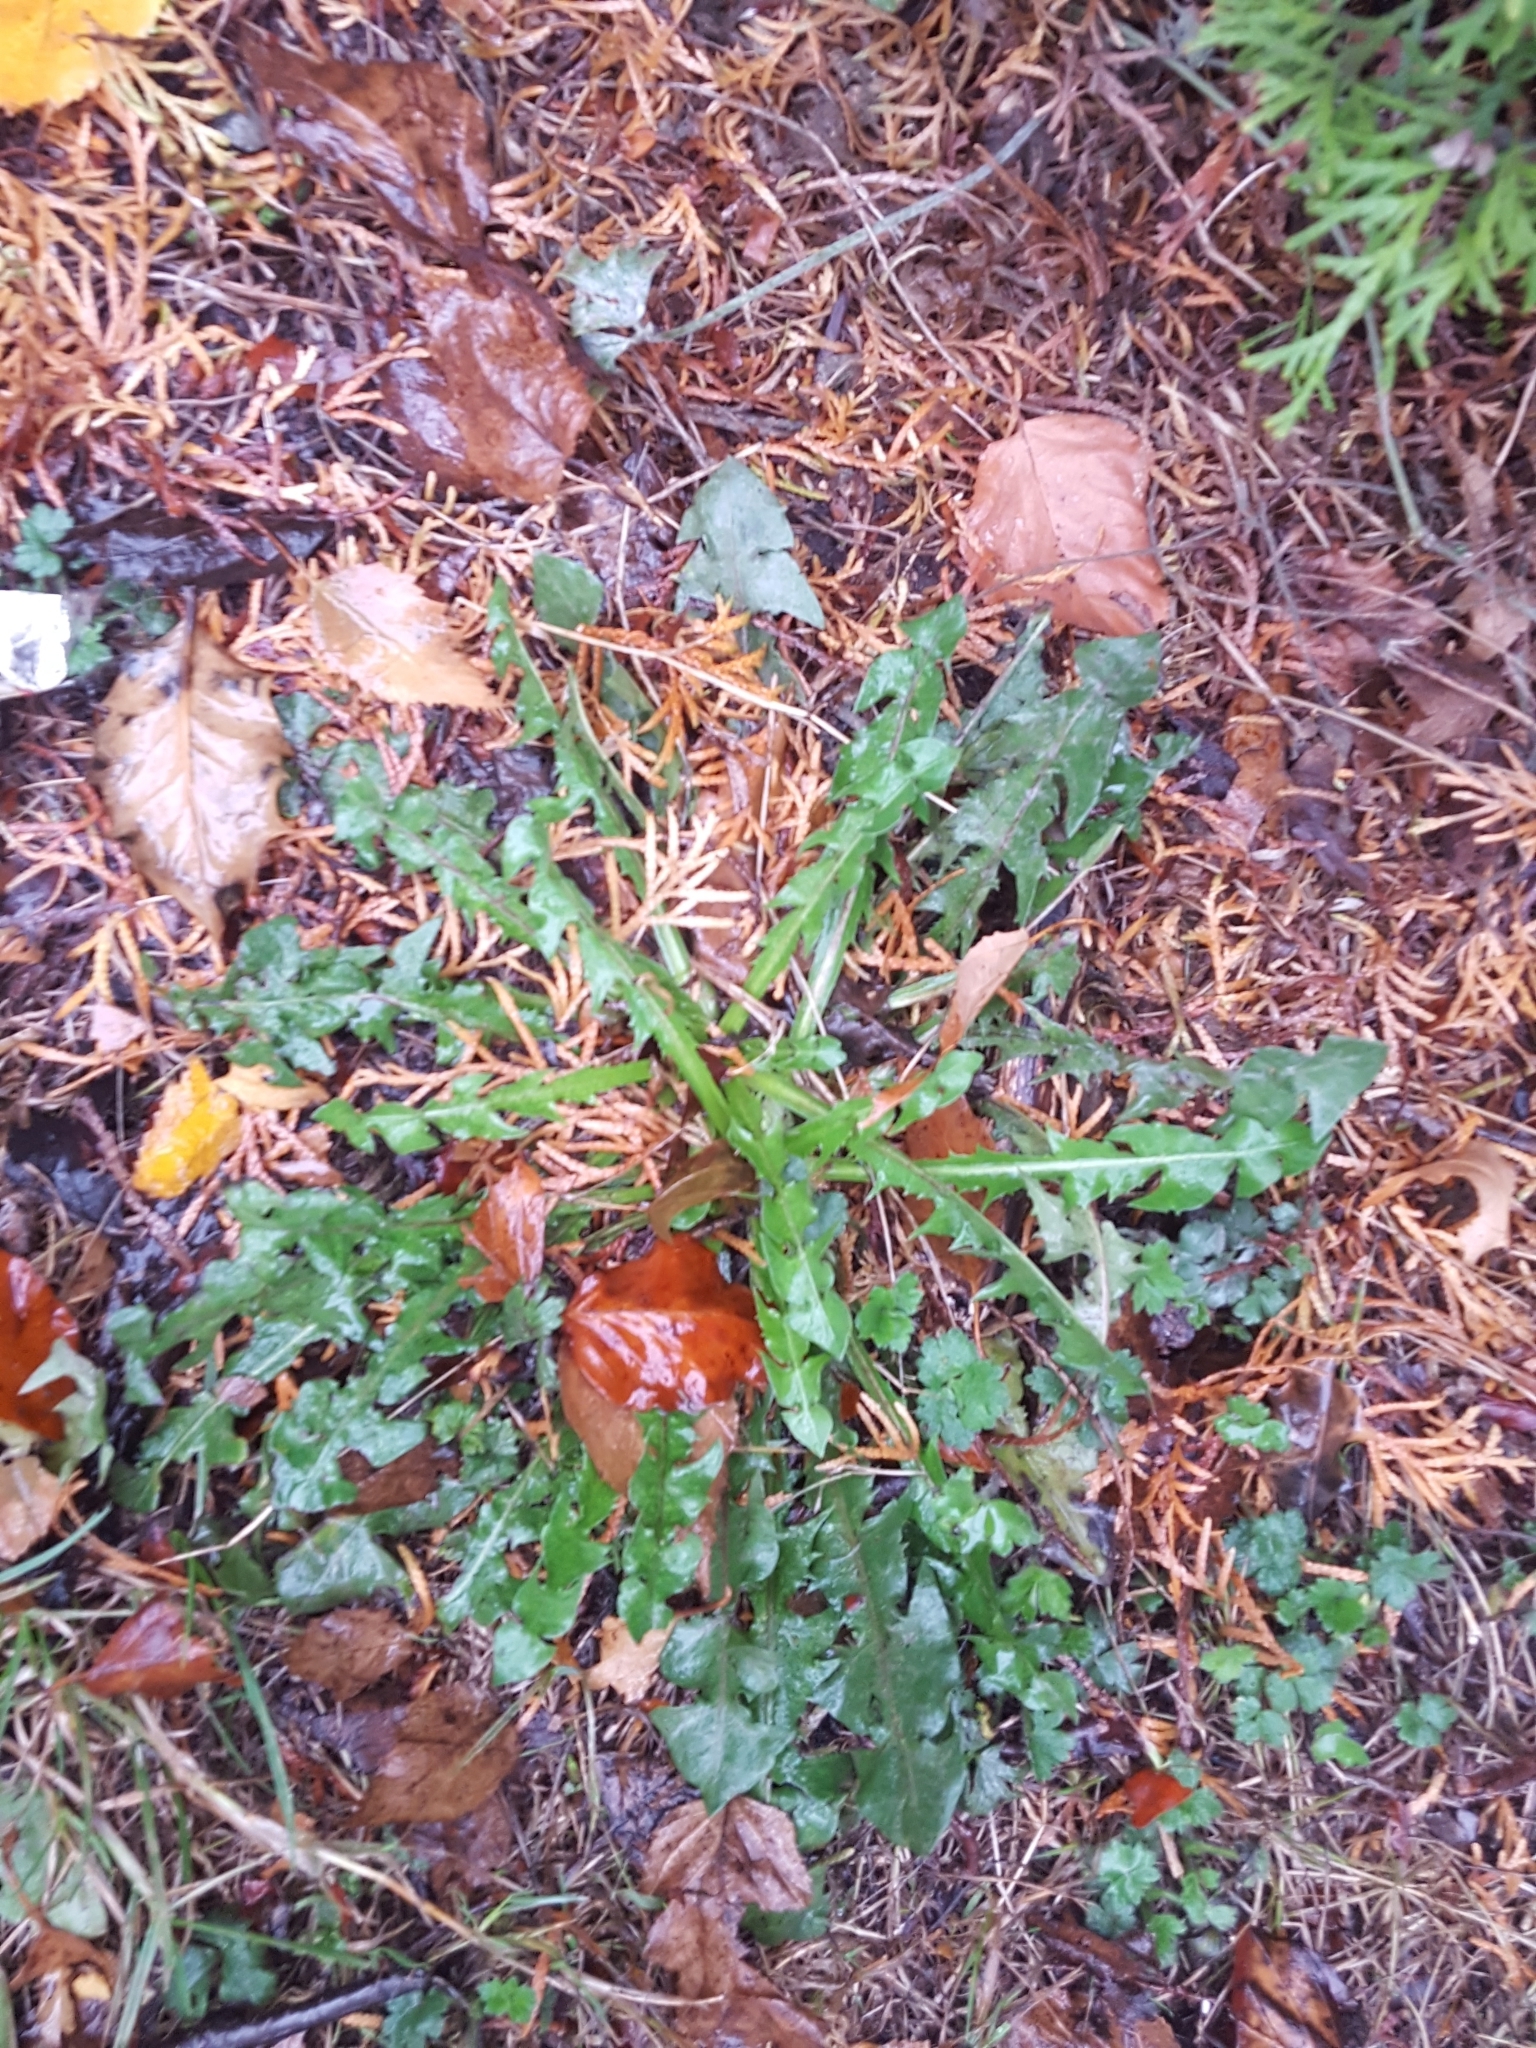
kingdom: Plantae
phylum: Tracheophyta
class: Magnoliopsida
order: Asterales
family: Asteraceae
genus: Taraxacum
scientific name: Taraxacum officinale
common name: Common dandelion
